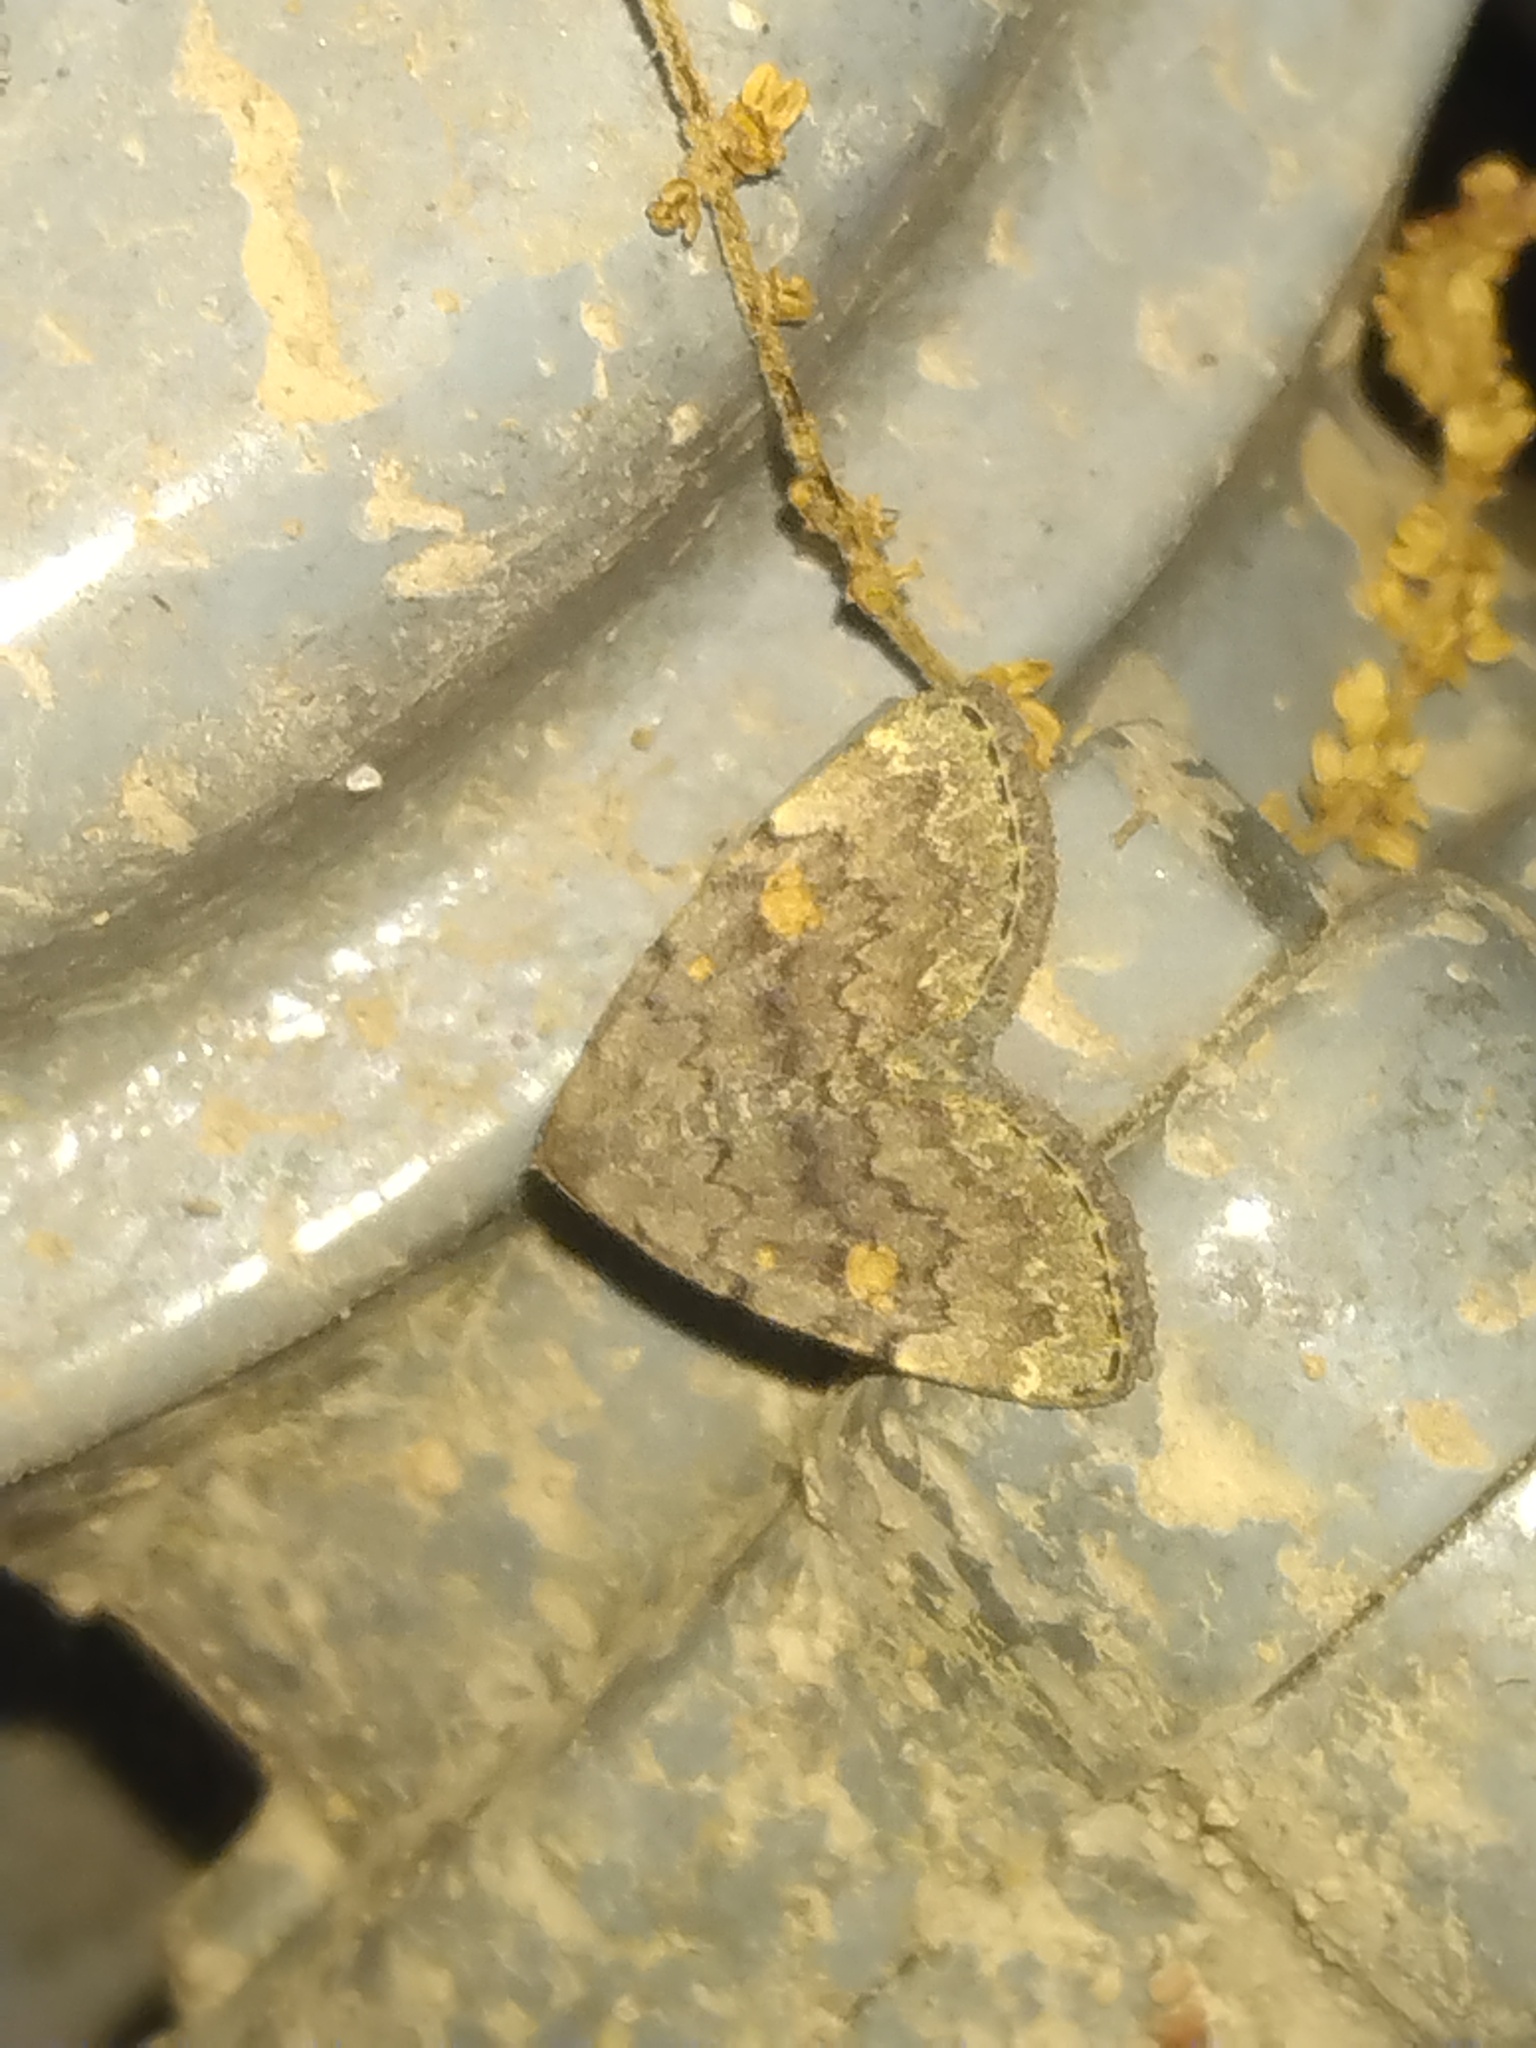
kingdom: Animalia
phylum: Arthropoda
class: Insecta
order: Lepidoptera
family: Erebidae
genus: Idia
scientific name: Idia aemula
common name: Common idia moth
